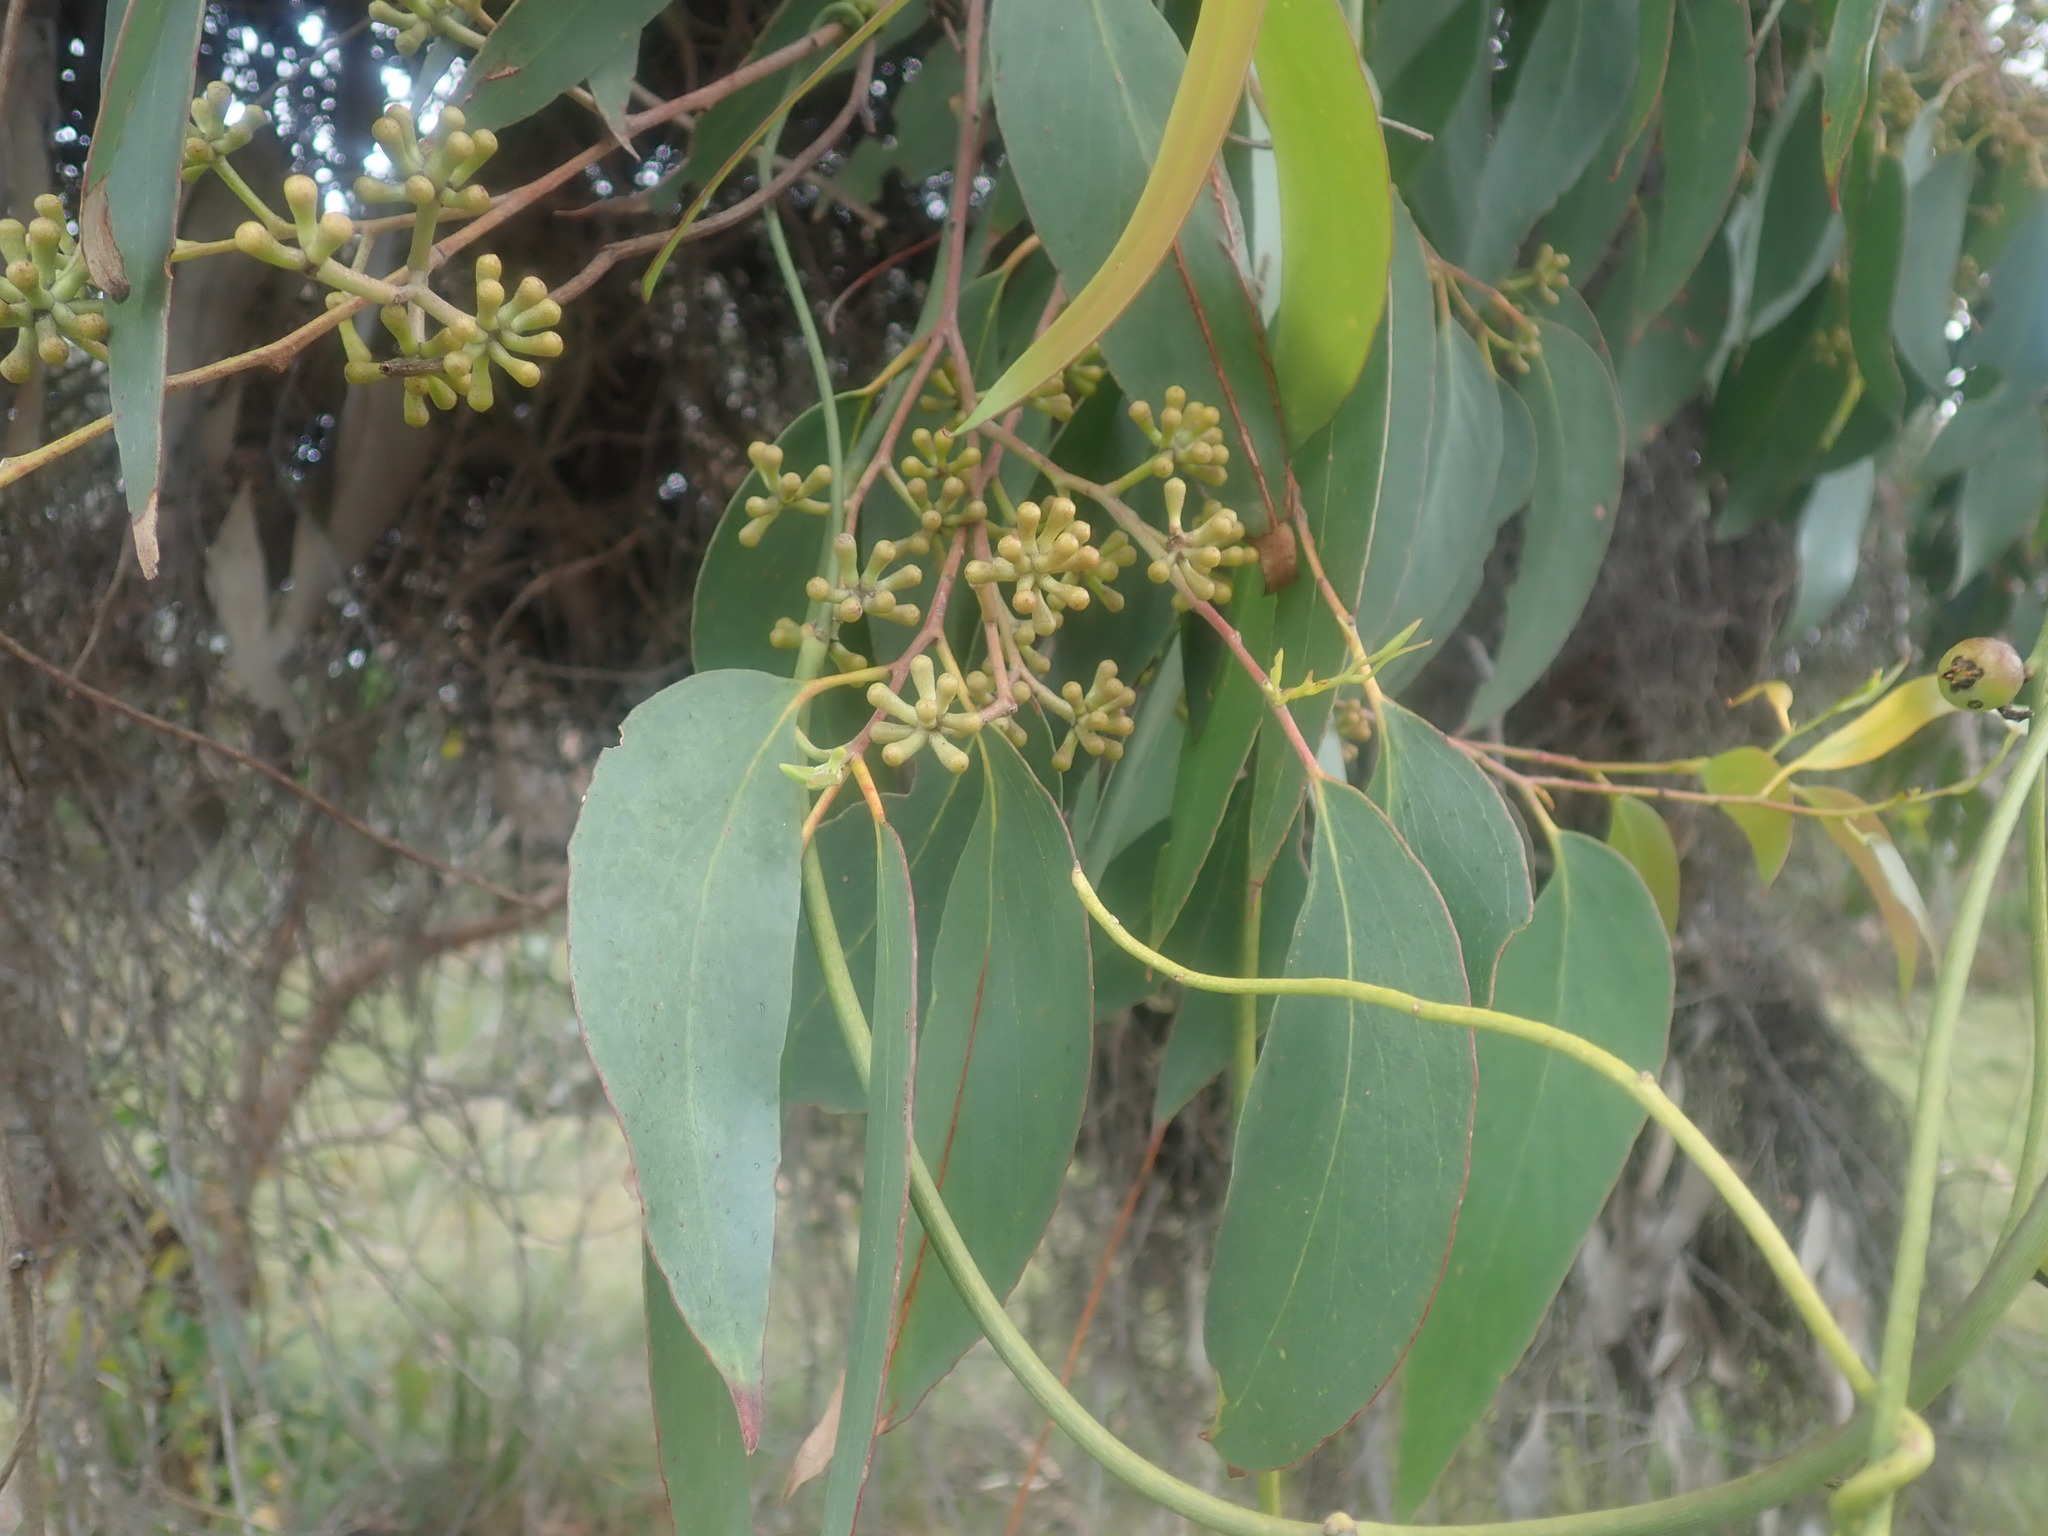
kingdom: Plantae
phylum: Tracheophyta
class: Magnoliopsida
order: Myrtales
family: Myrtaceae
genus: Eucalyptus
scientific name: Eucalyptus obliqua
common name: Messmate stringybark
